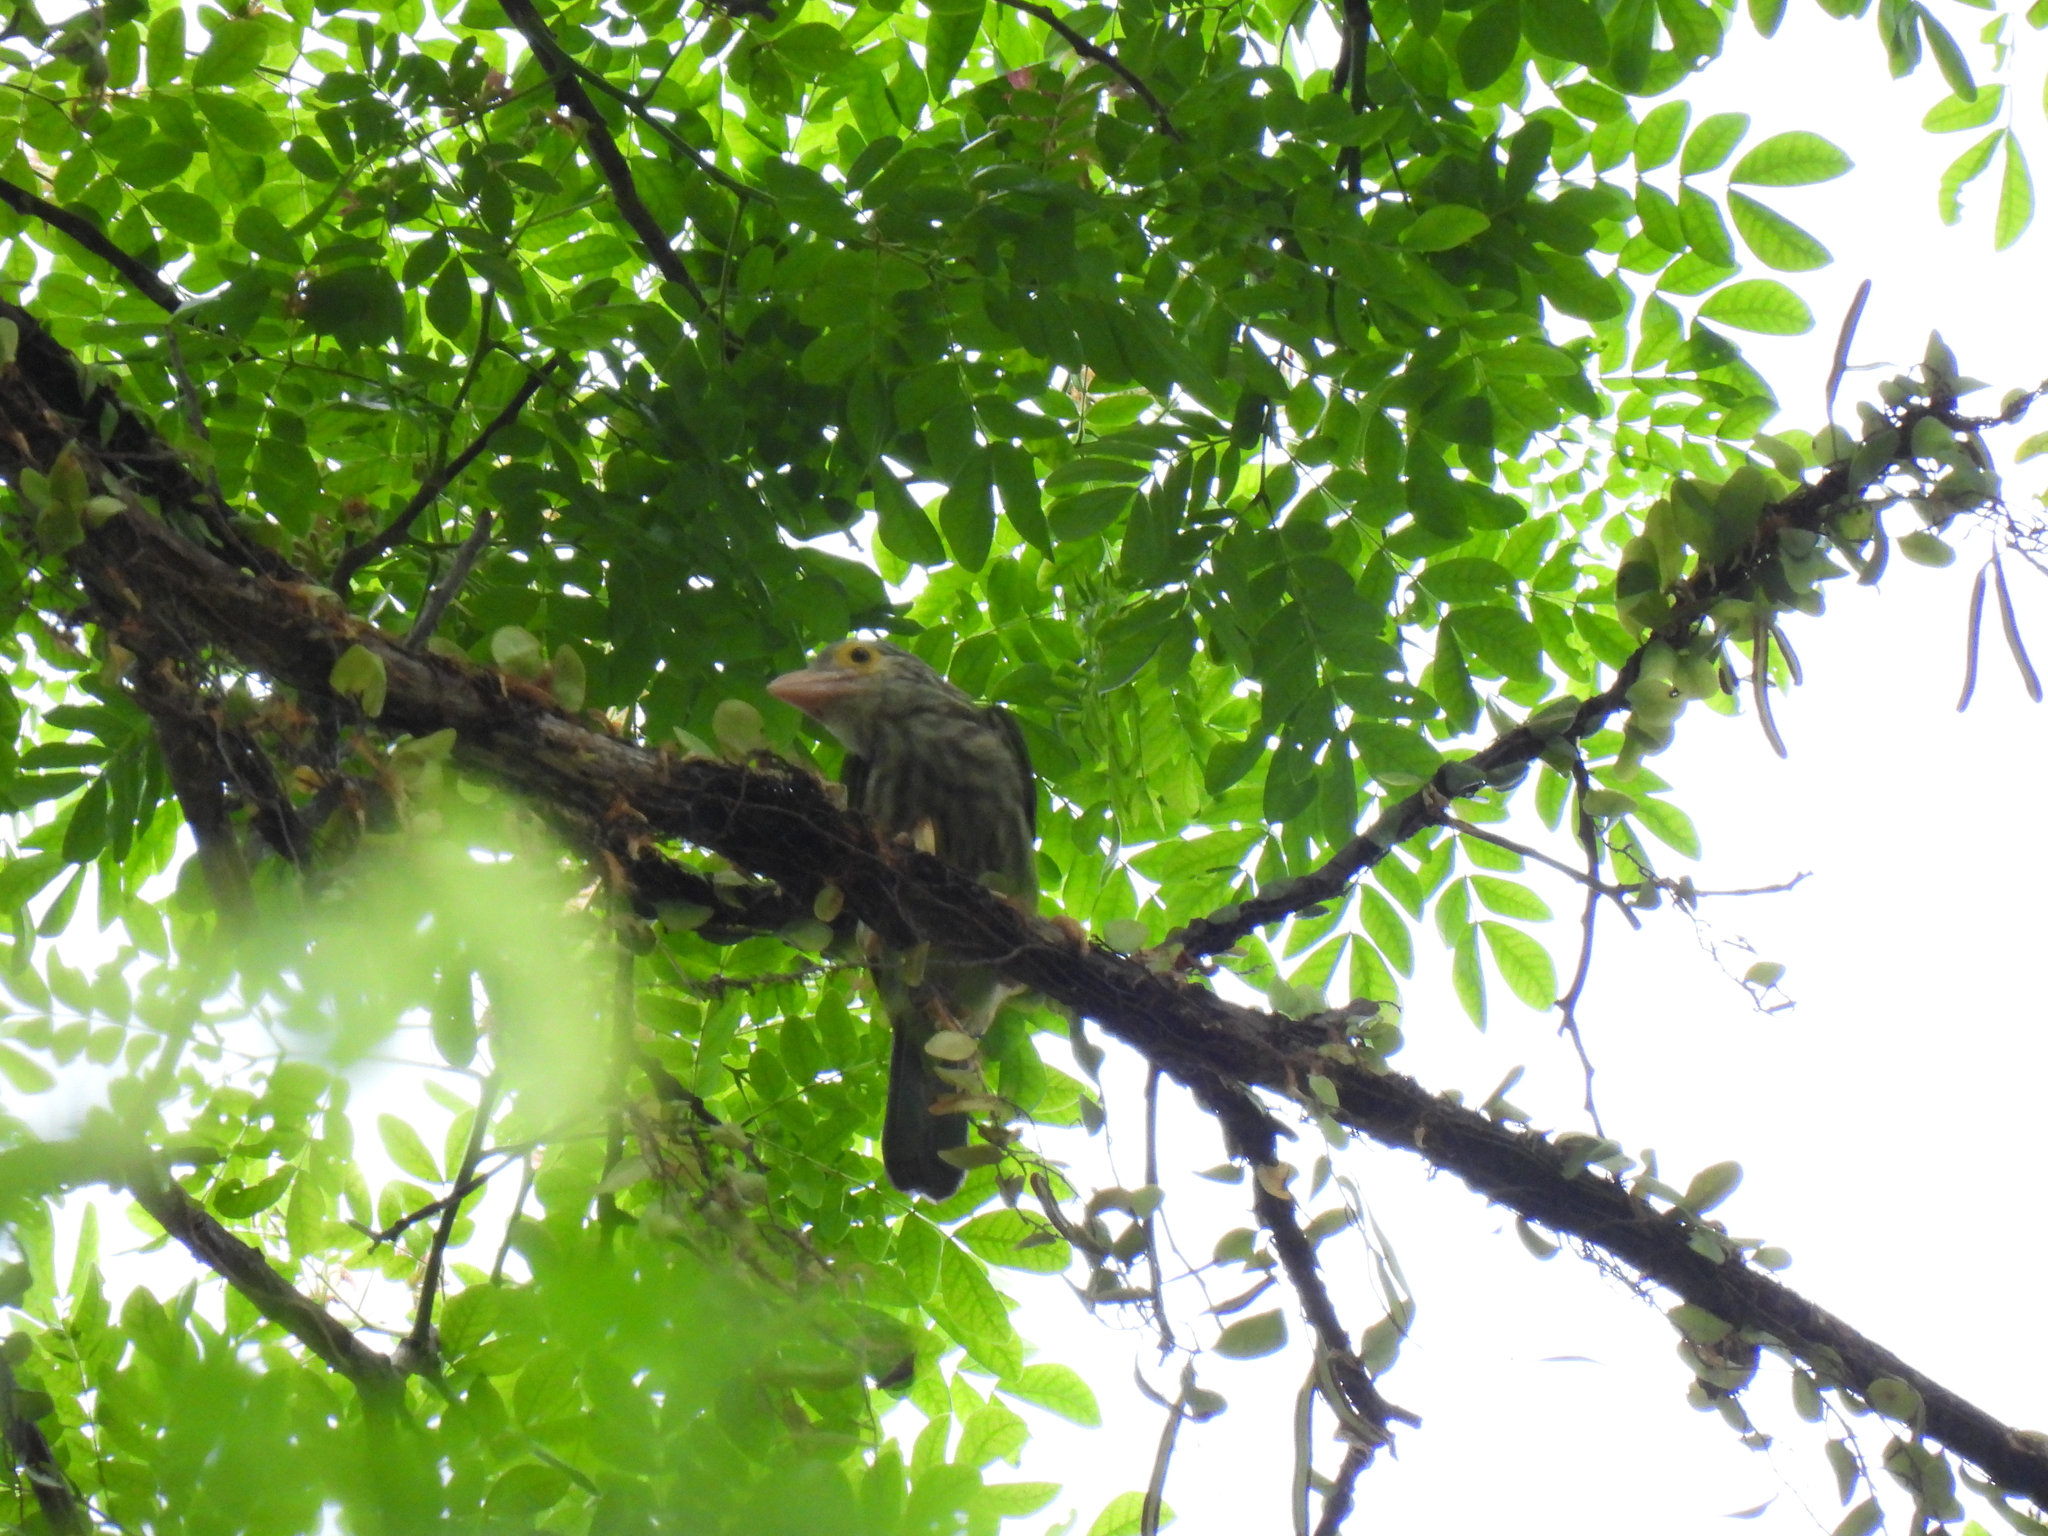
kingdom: Animalia
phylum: Chordata
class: Aves
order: Piciformes
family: Megalaimidae
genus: Psilopogon
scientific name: Psilopogon lineatus
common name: Lineated barbet
